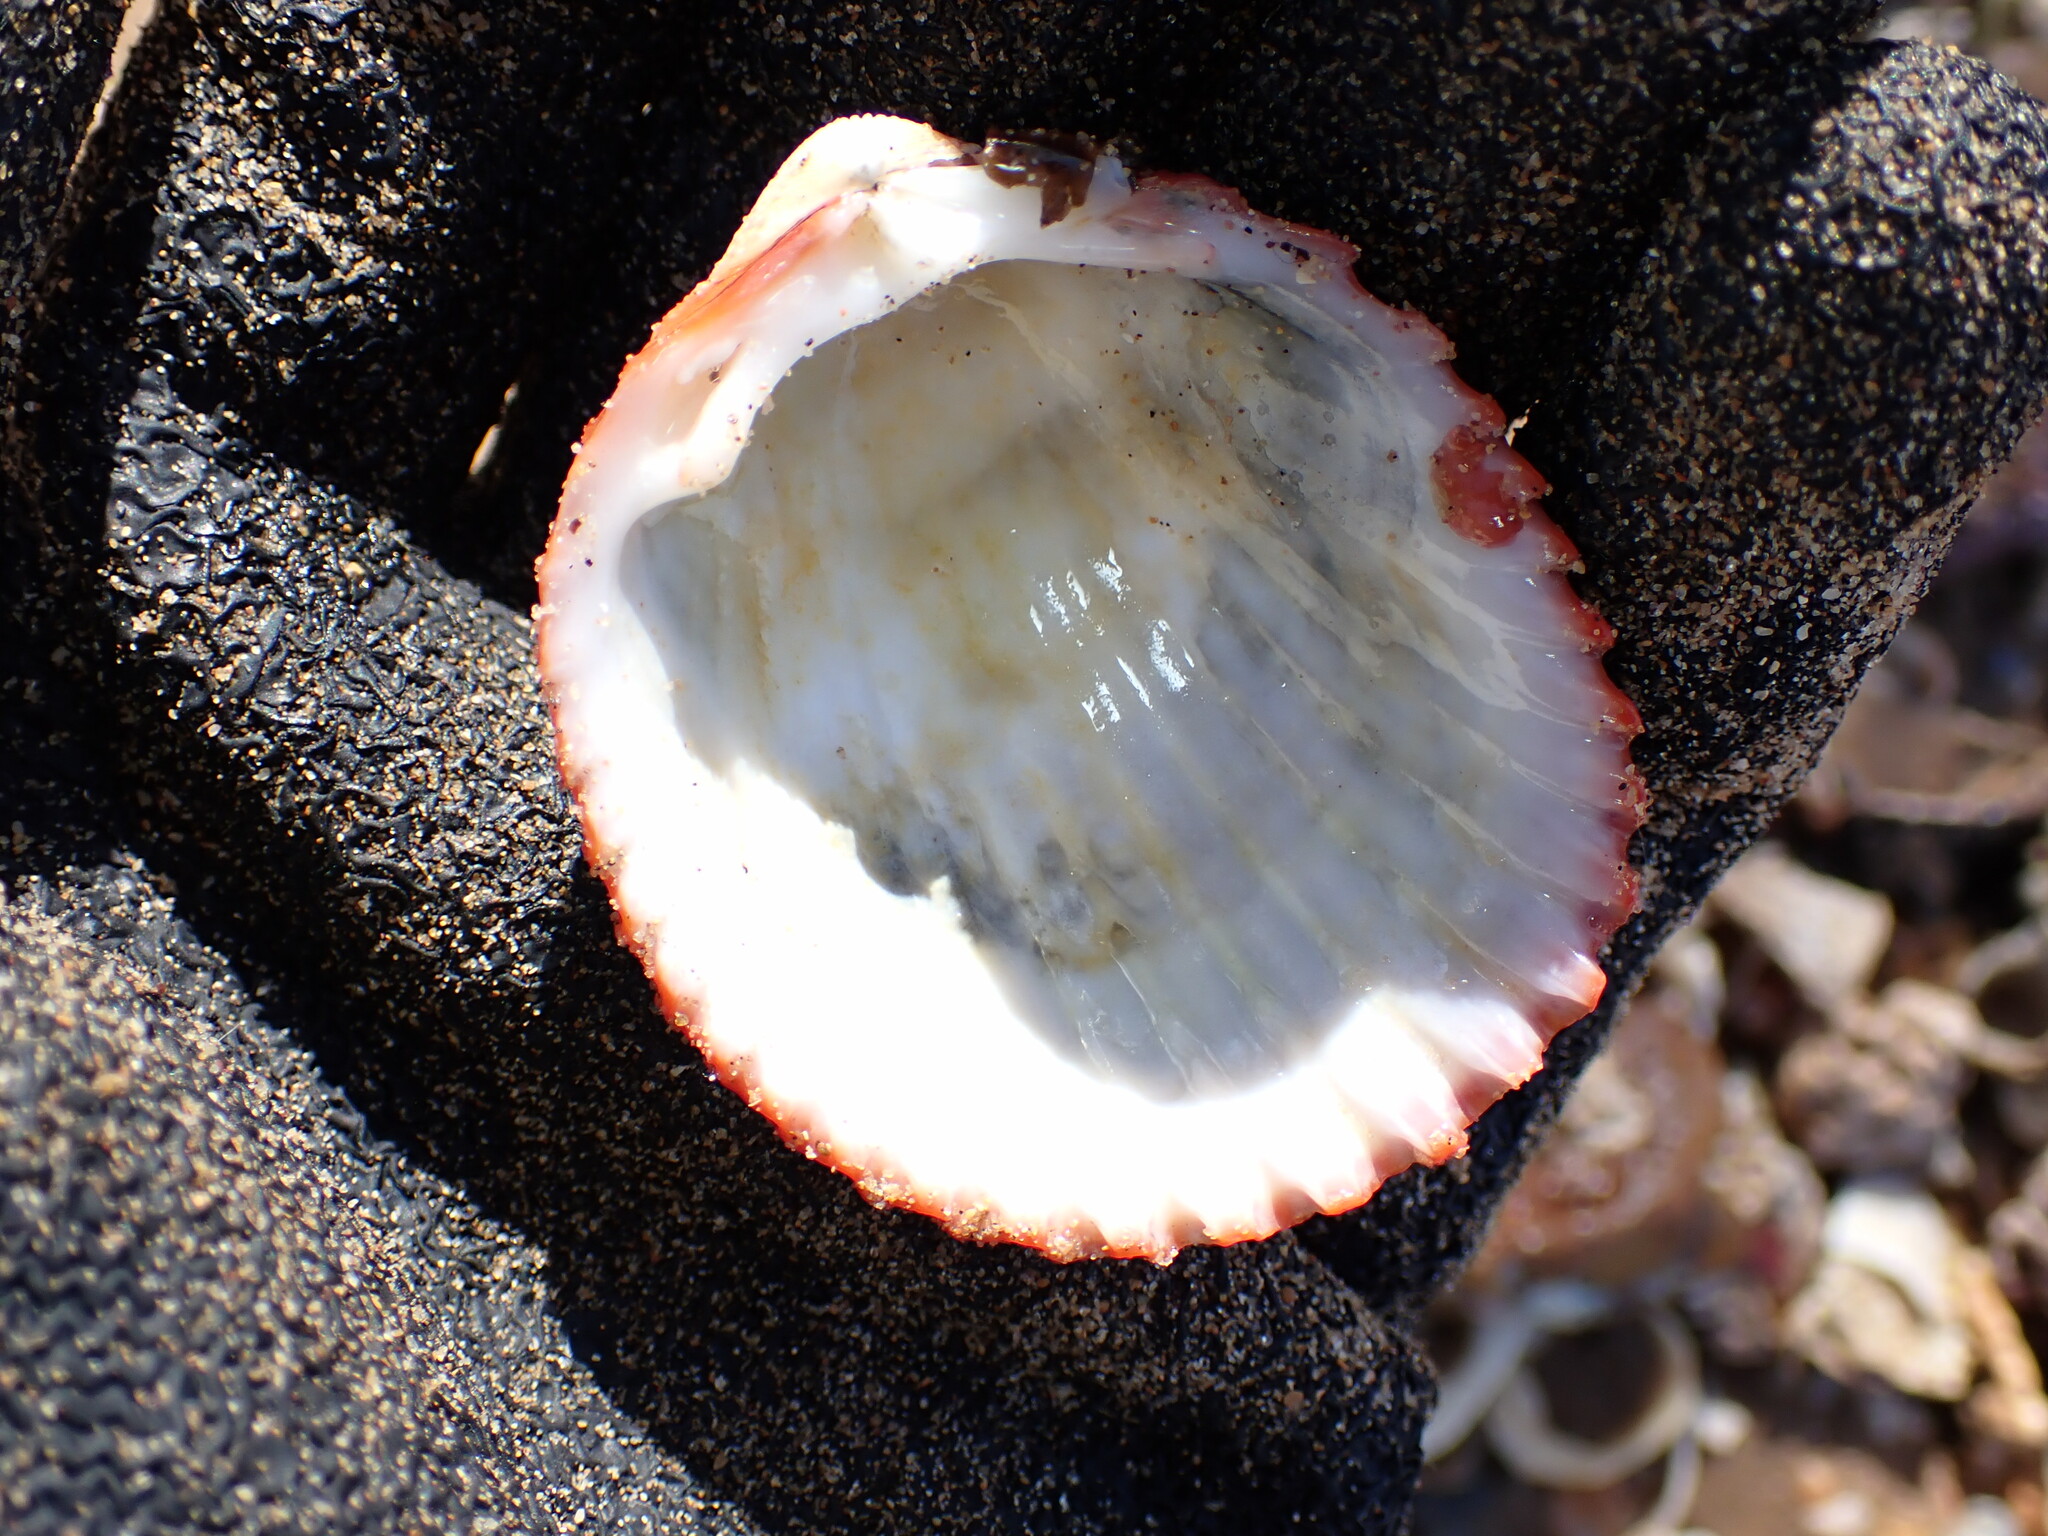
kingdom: Animalia
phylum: Mollusca
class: Bivalvia
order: Cardiida
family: Cardiidae
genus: Vasticardium
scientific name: Vasticardium vertebratum
